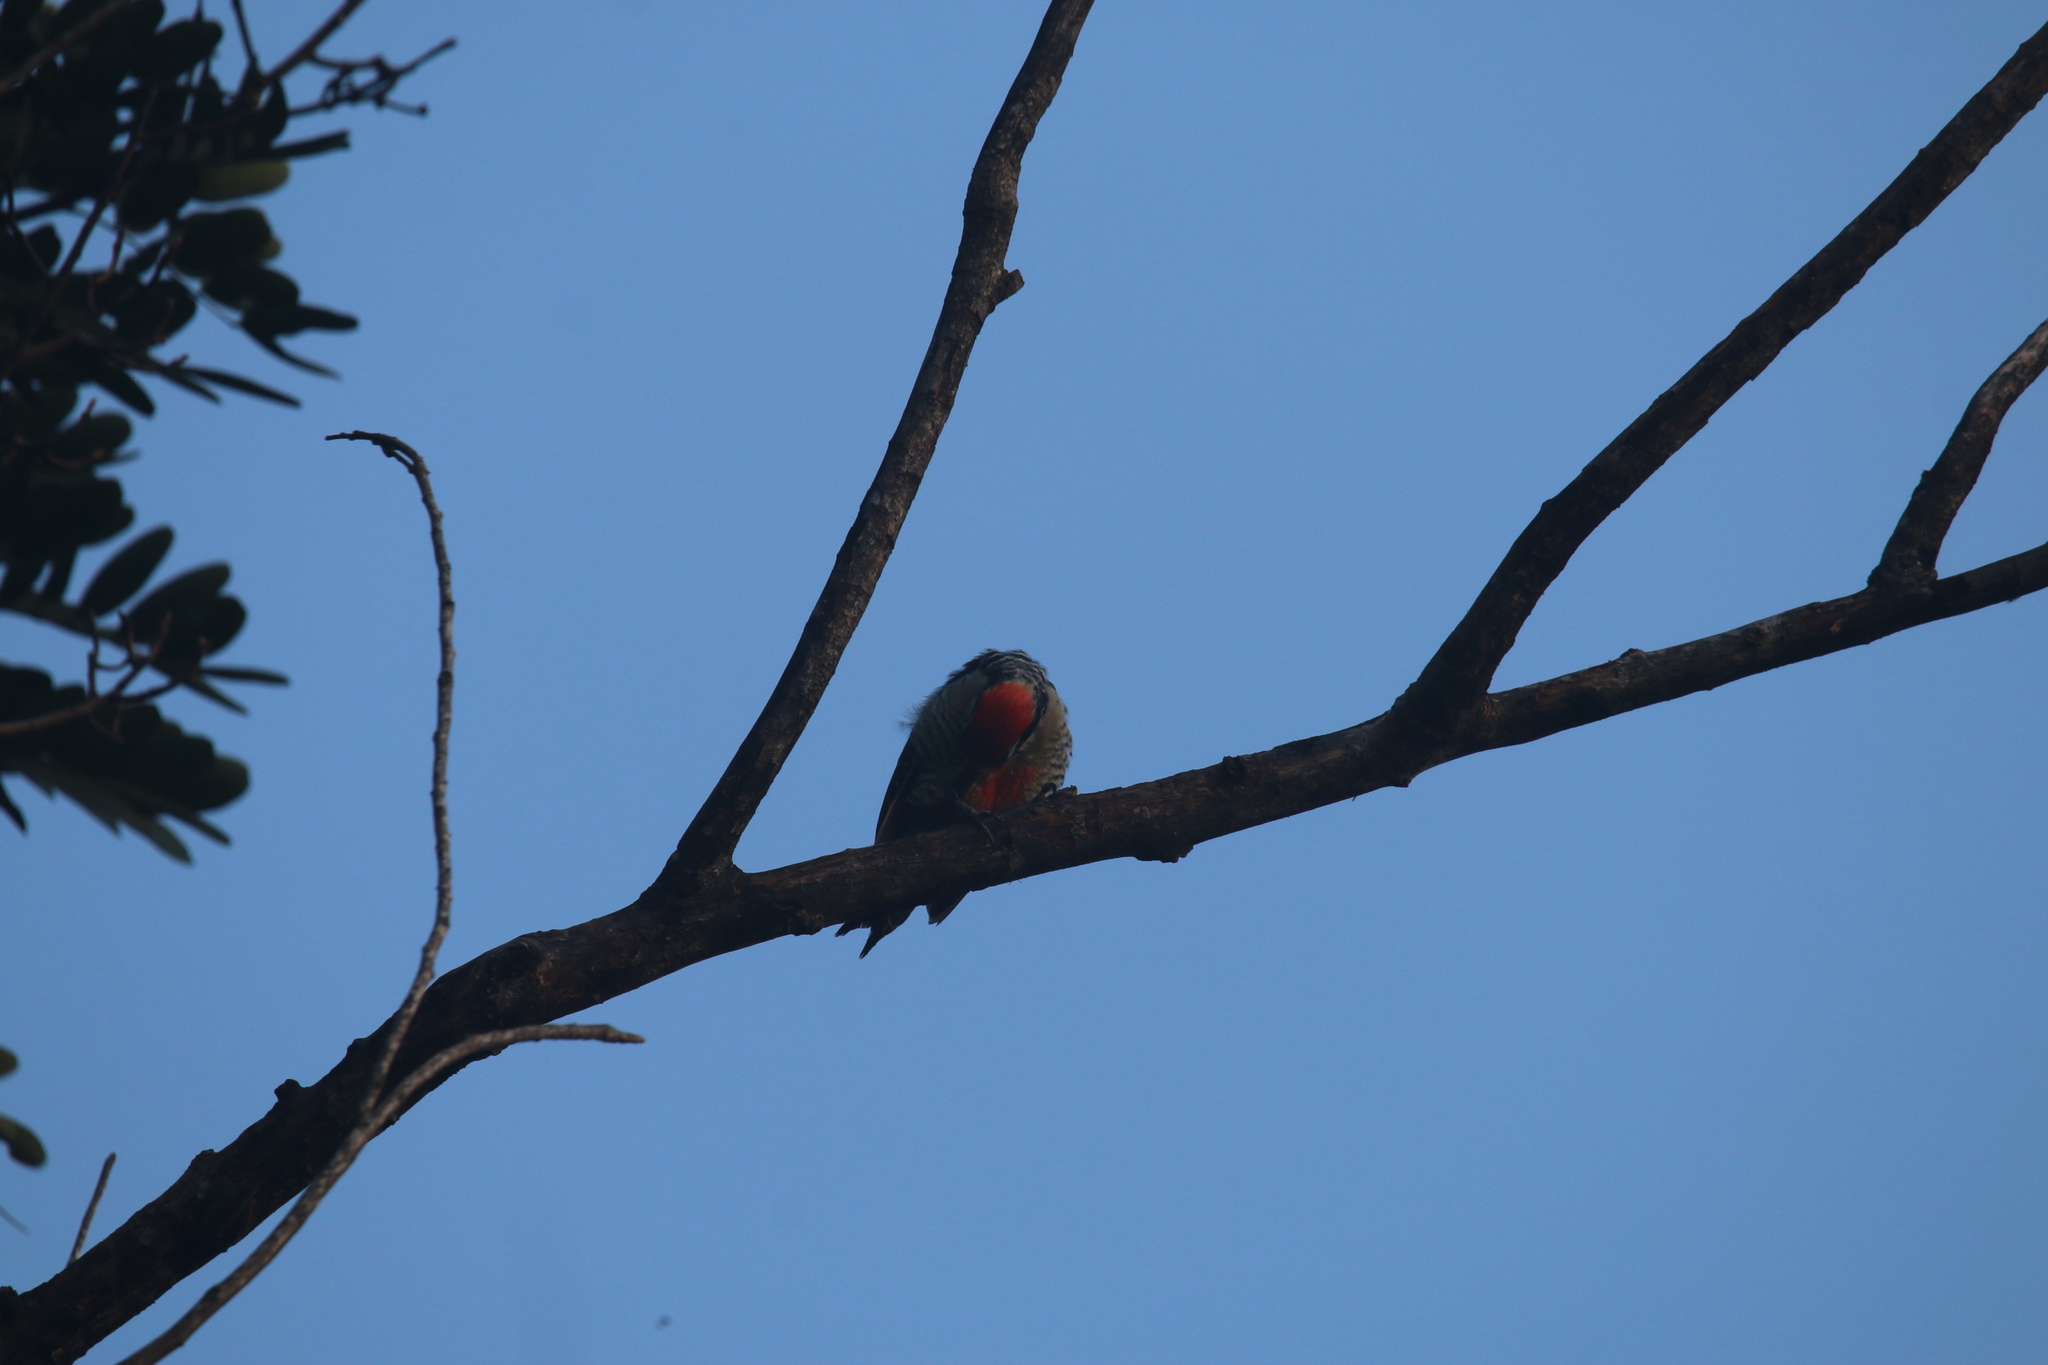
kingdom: Animalia
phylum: Chordata
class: Aves
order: Piciformes
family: Picidae
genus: Melanerpes
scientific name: Melanerpes pucherani
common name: Black-cheeked woodpecker
